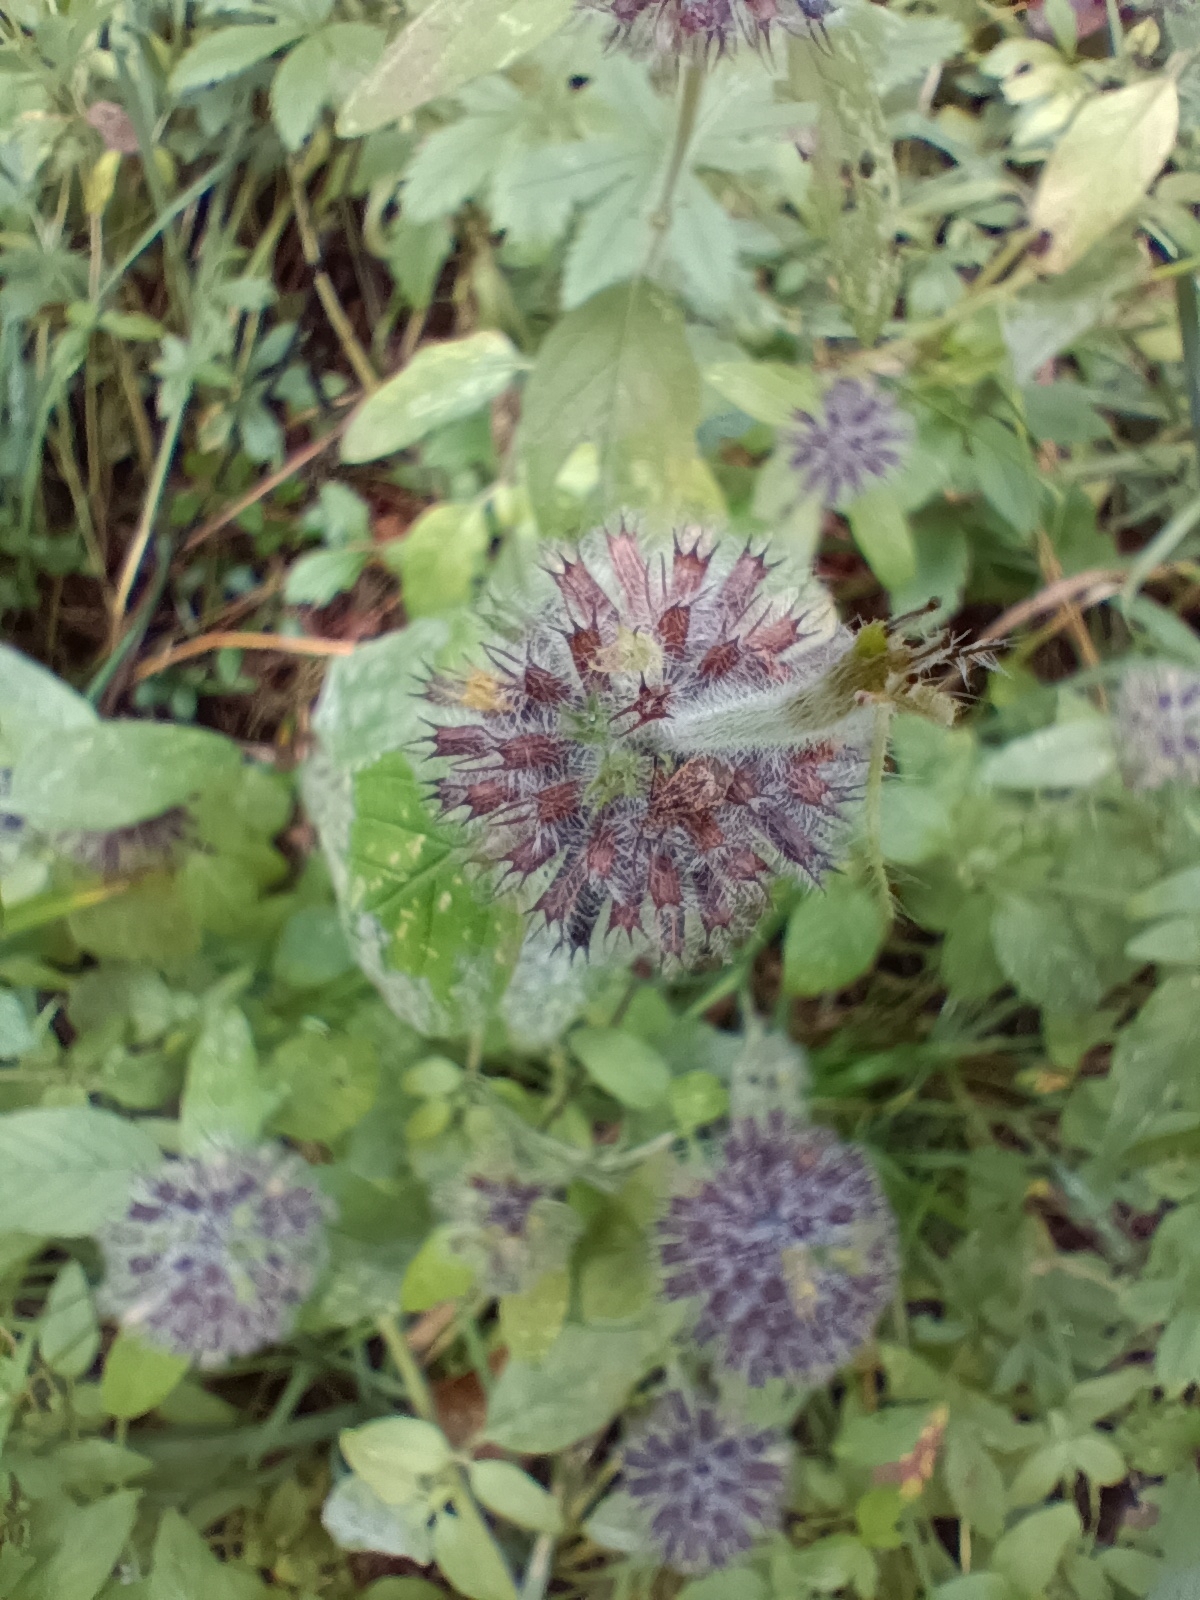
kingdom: Plantae
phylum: Tracheophyta
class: Magnoliopsida
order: Lamiales
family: Lamiaceae
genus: Clinopodium
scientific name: Clinopodium vulgare
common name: Wild basil
